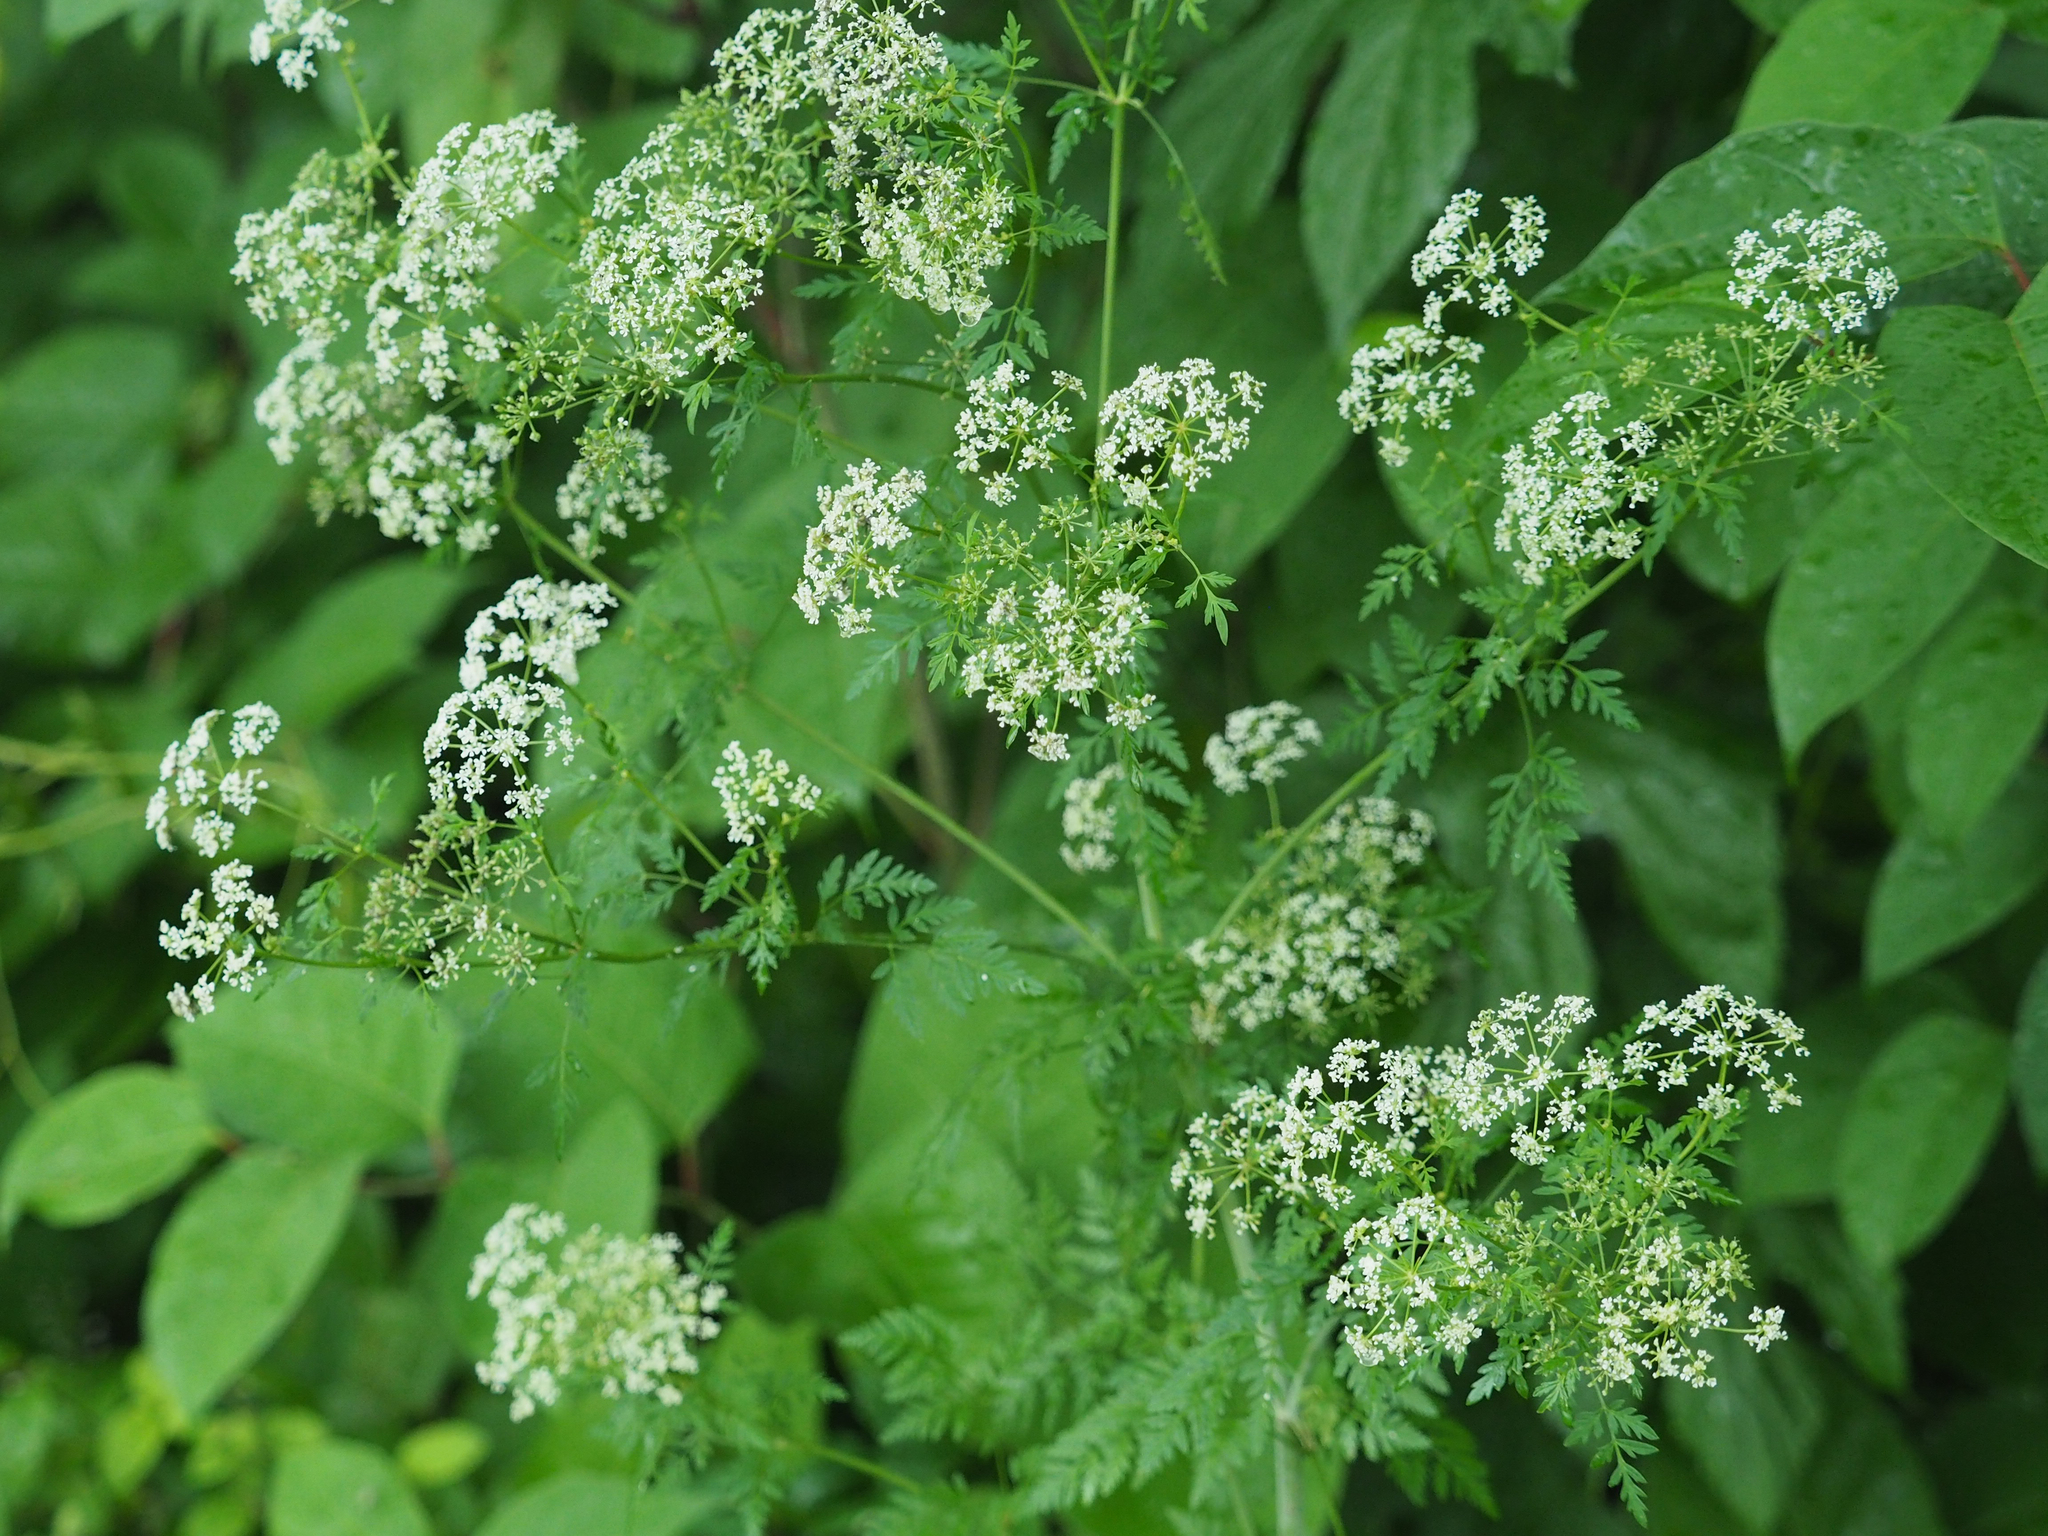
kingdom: Plantae
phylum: Tracheophyta
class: Magnoliopsida
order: Apiales
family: Apiaceae
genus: Conium
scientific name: Conium maculatum
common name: Hemlock
